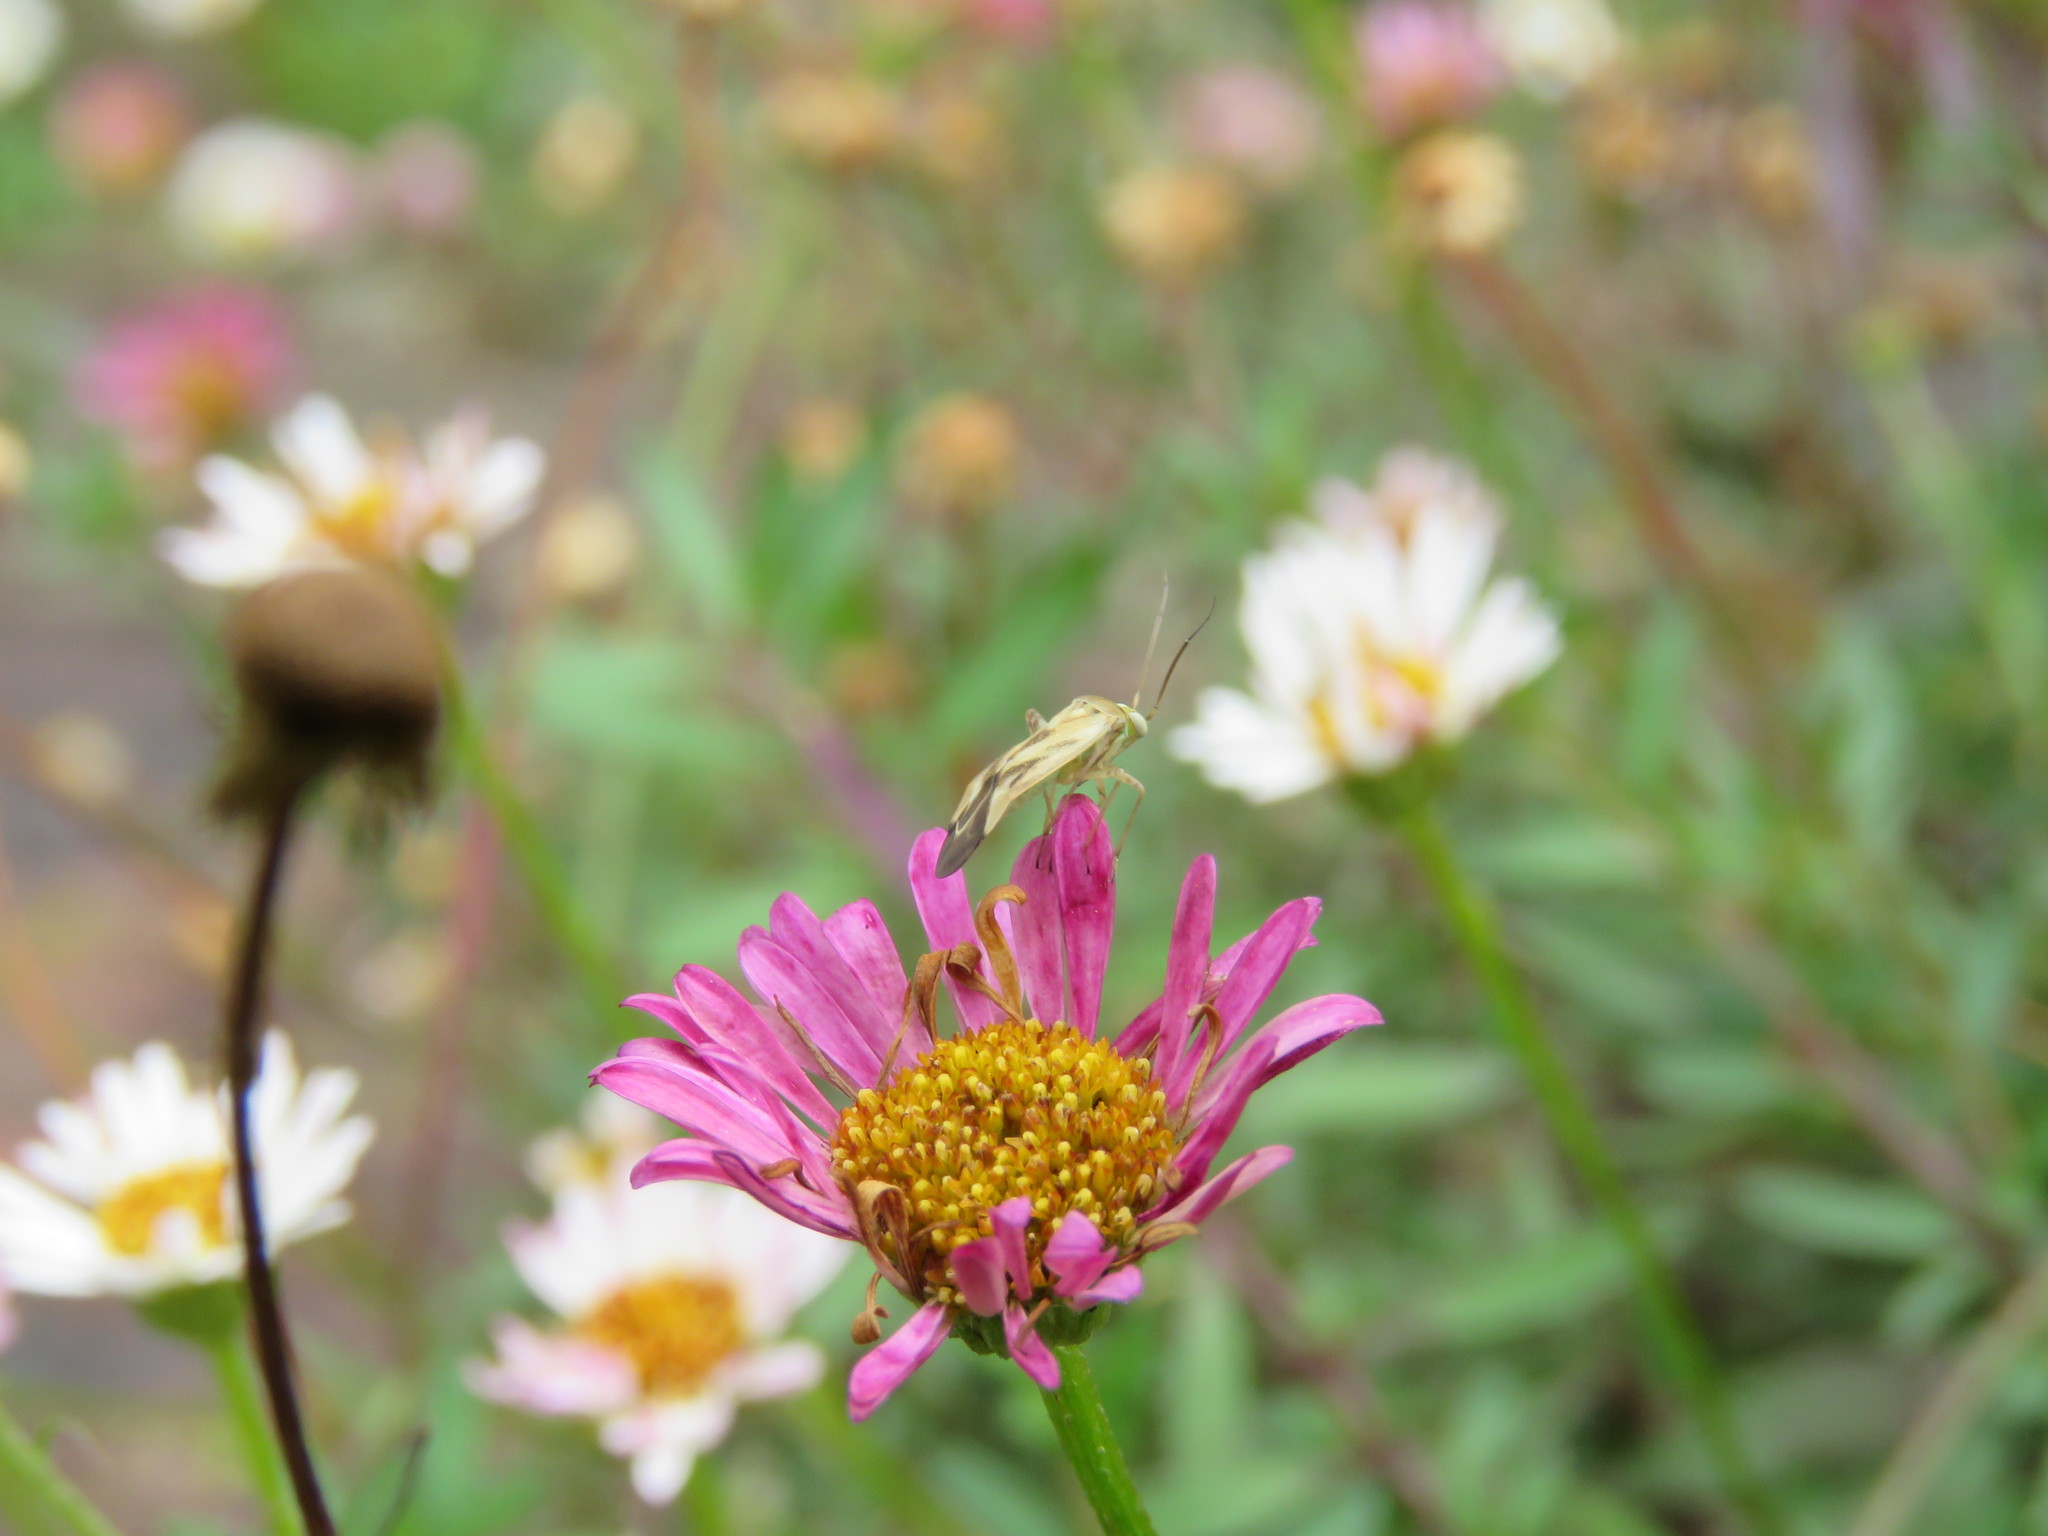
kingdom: Animalia
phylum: Arthropoda
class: Insecta
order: Hemiptera
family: Miridae
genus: Taylorilygus
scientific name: Taylorilygus apicalis
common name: Plant bug
